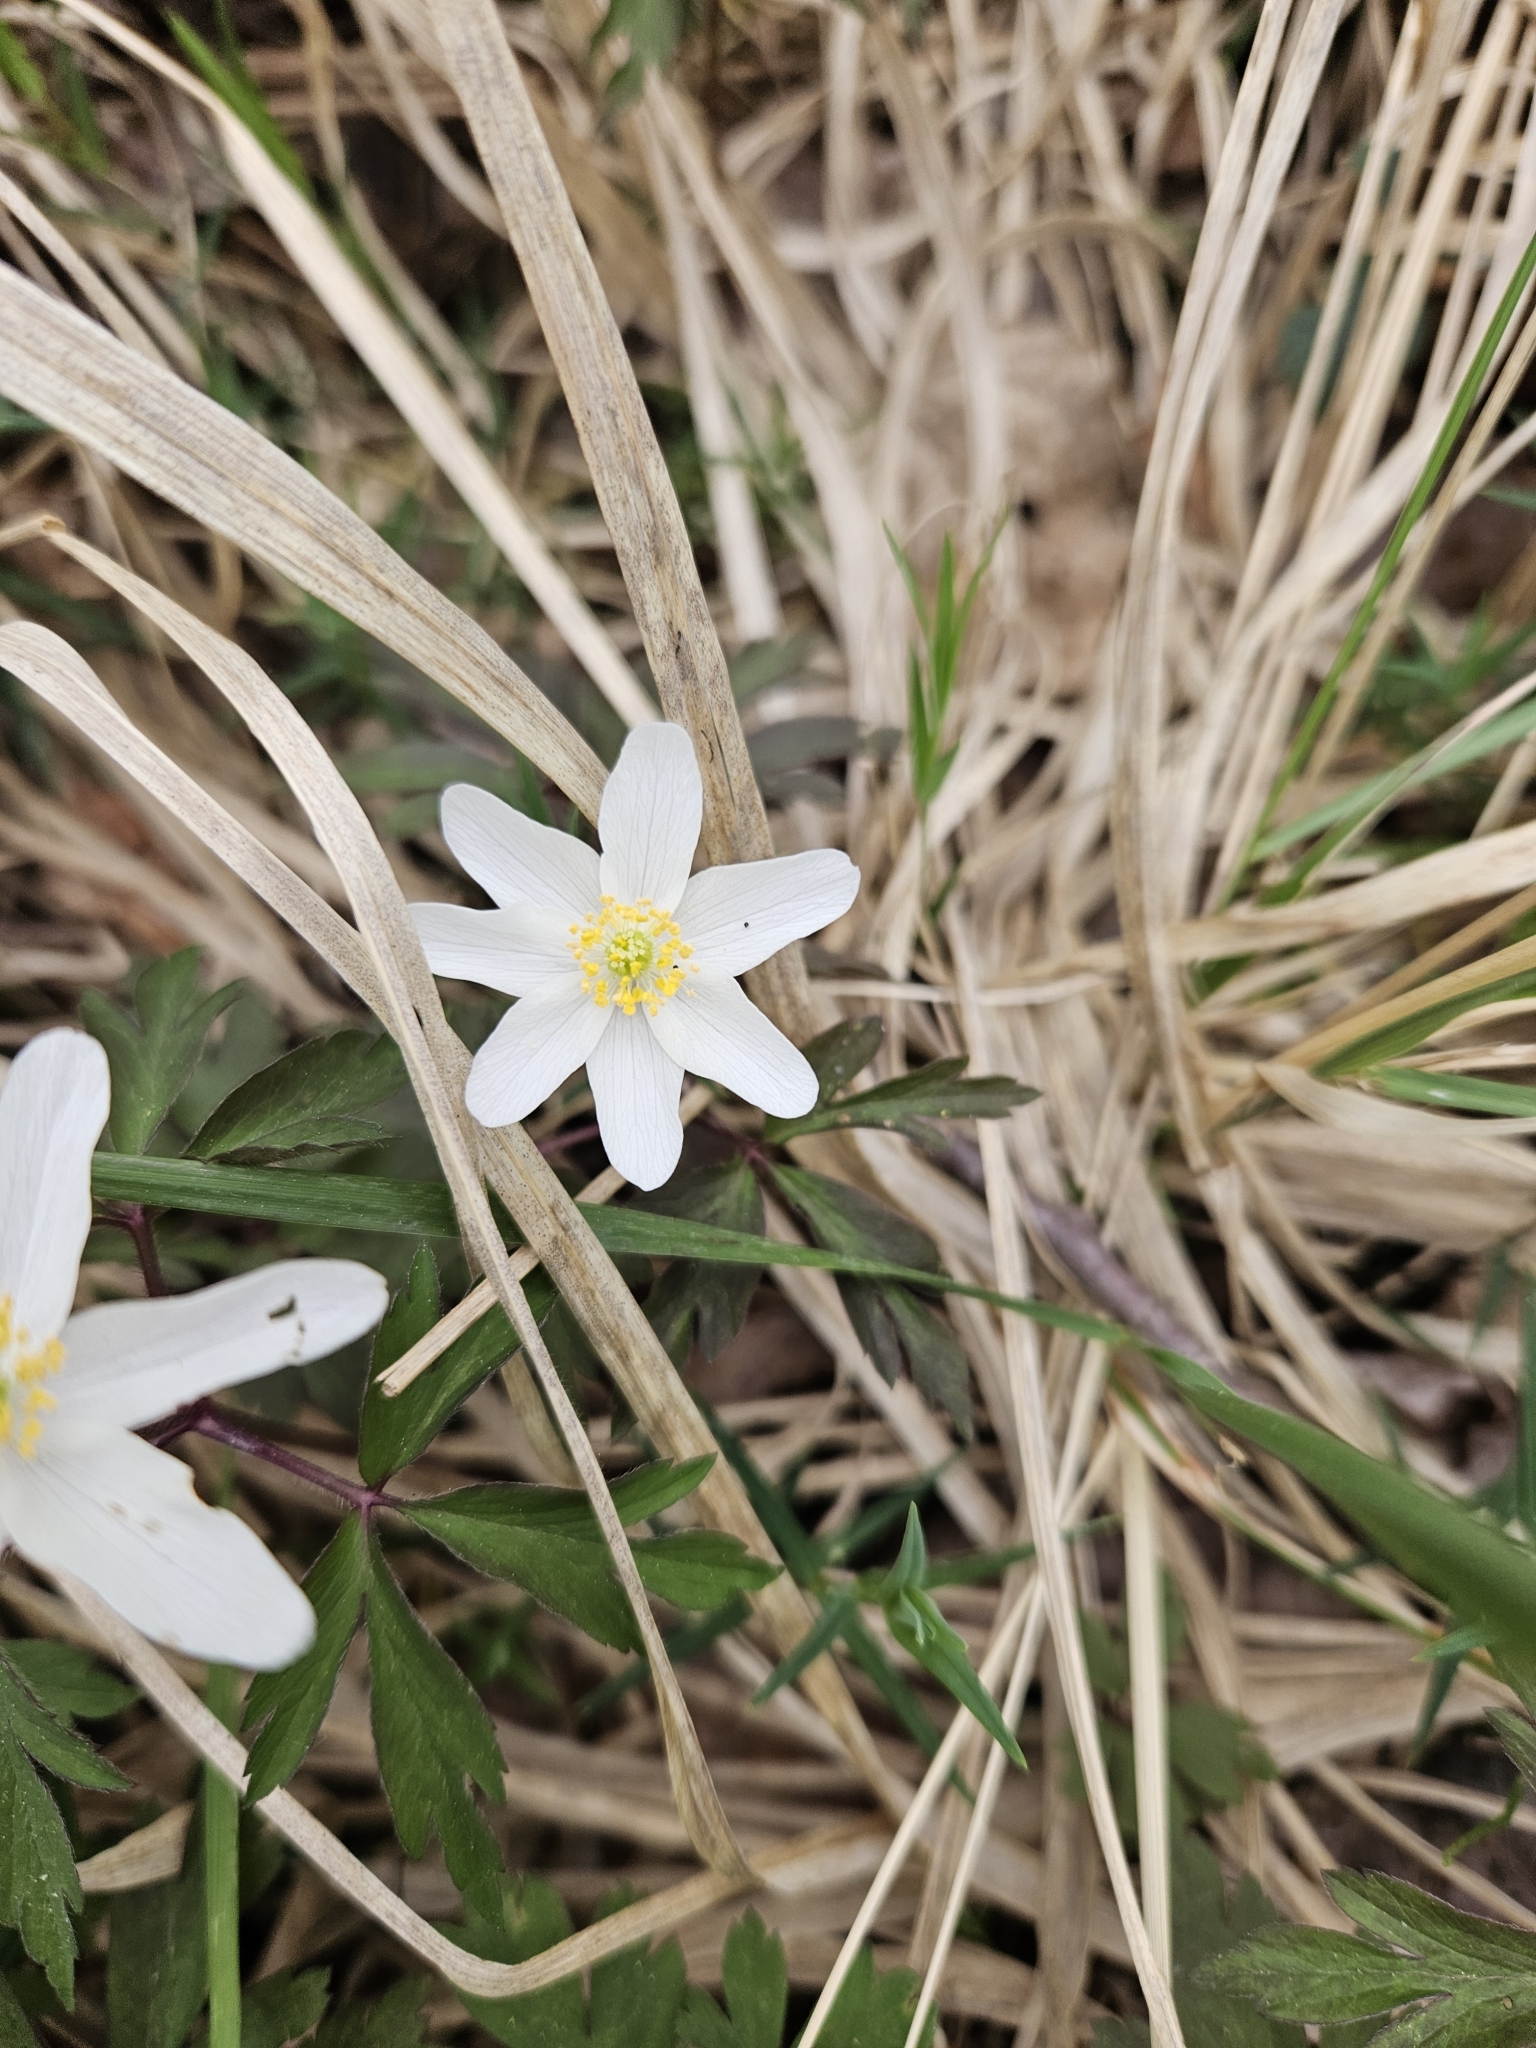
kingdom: Plantae
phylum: Tracheophyta
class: Magnoliopsida
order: Ranunculales
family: Ranunculaceae
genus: Anemone
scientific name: Anemone nemorosa
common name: Wood anemone
